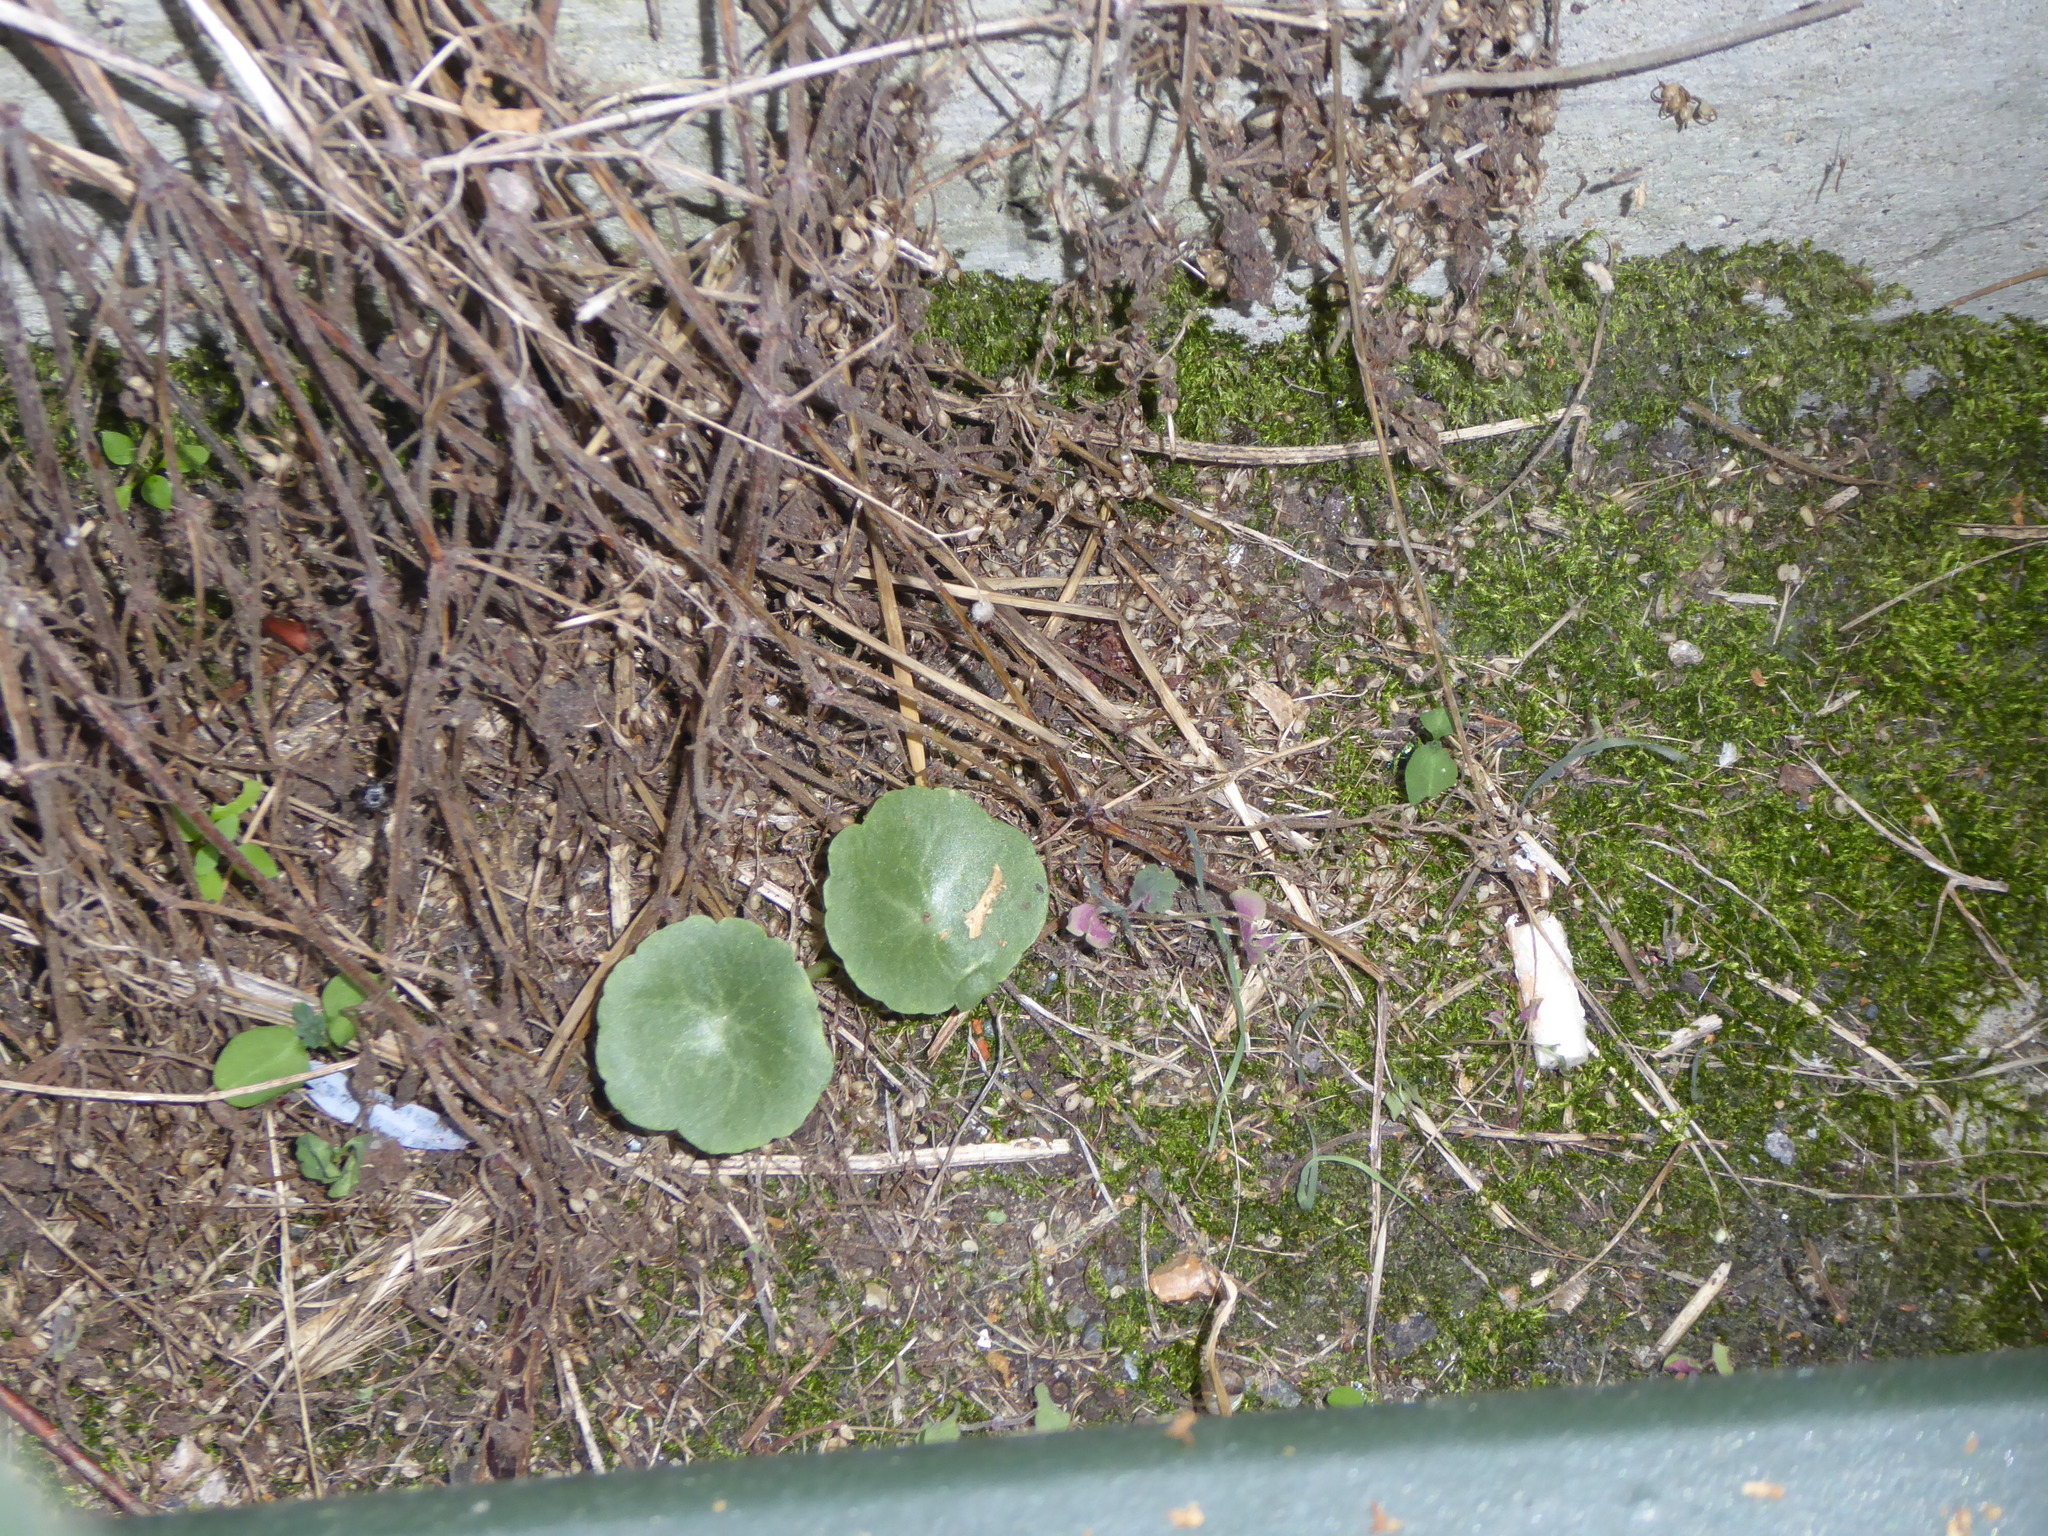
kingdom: Plantae
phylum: Tracheophyta
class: Magnoliopsida
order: Saxifragales
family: Crassulaceae
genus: Umbilicus
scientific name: Umbilicus rupestris
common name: Navelwort
